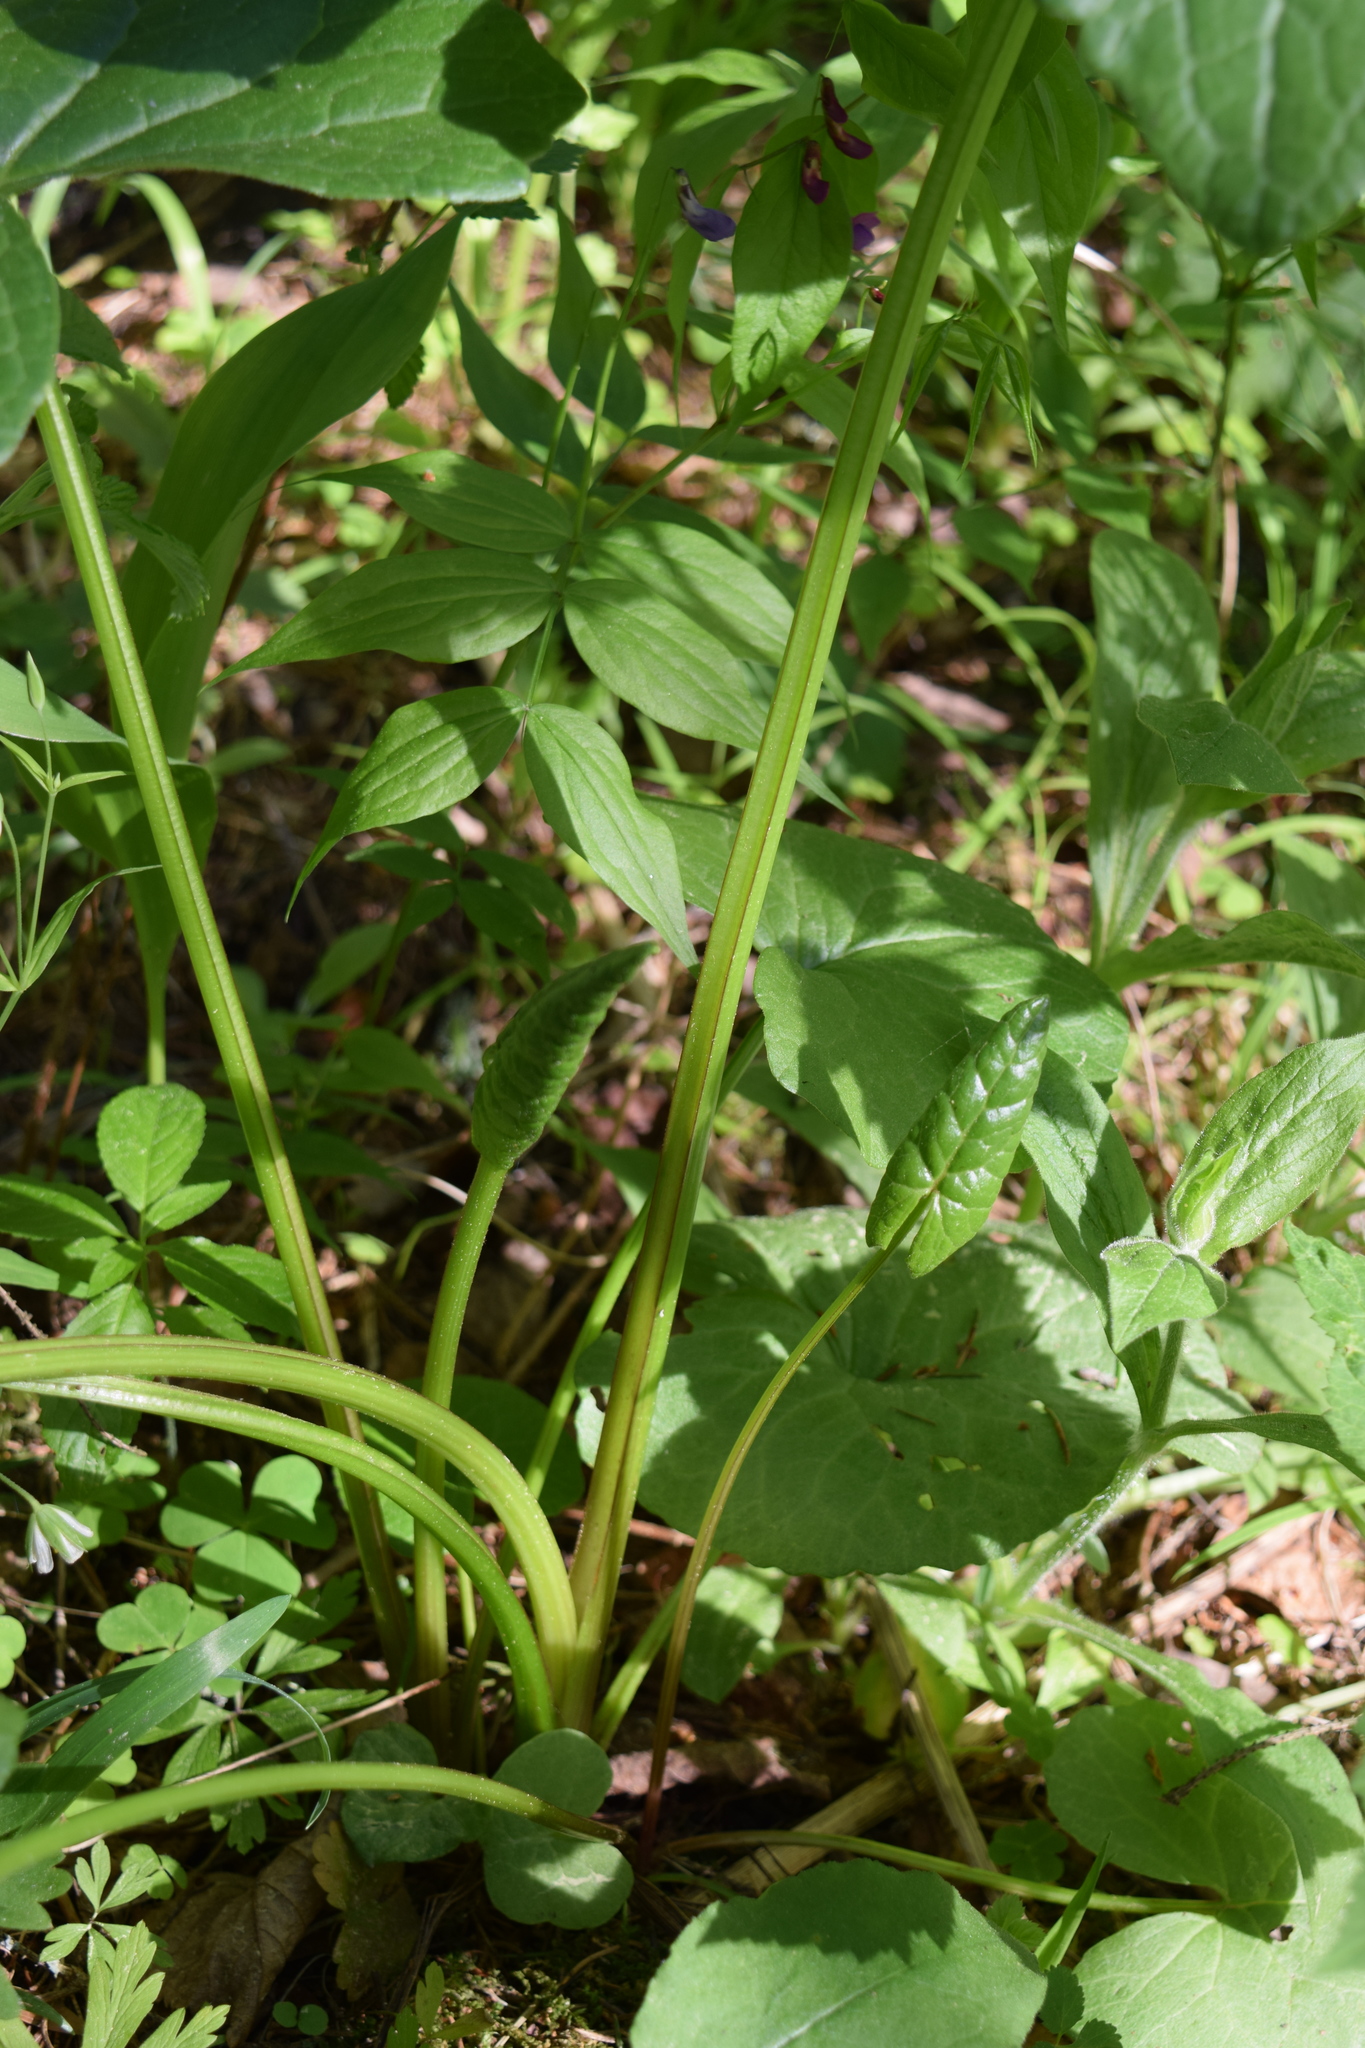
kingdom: Plantae
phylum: Tracheophyta
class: Magnoliopsida
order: Boraginales
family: Boraginaceae
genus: Brunnera
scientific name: Brunnera sibirica
